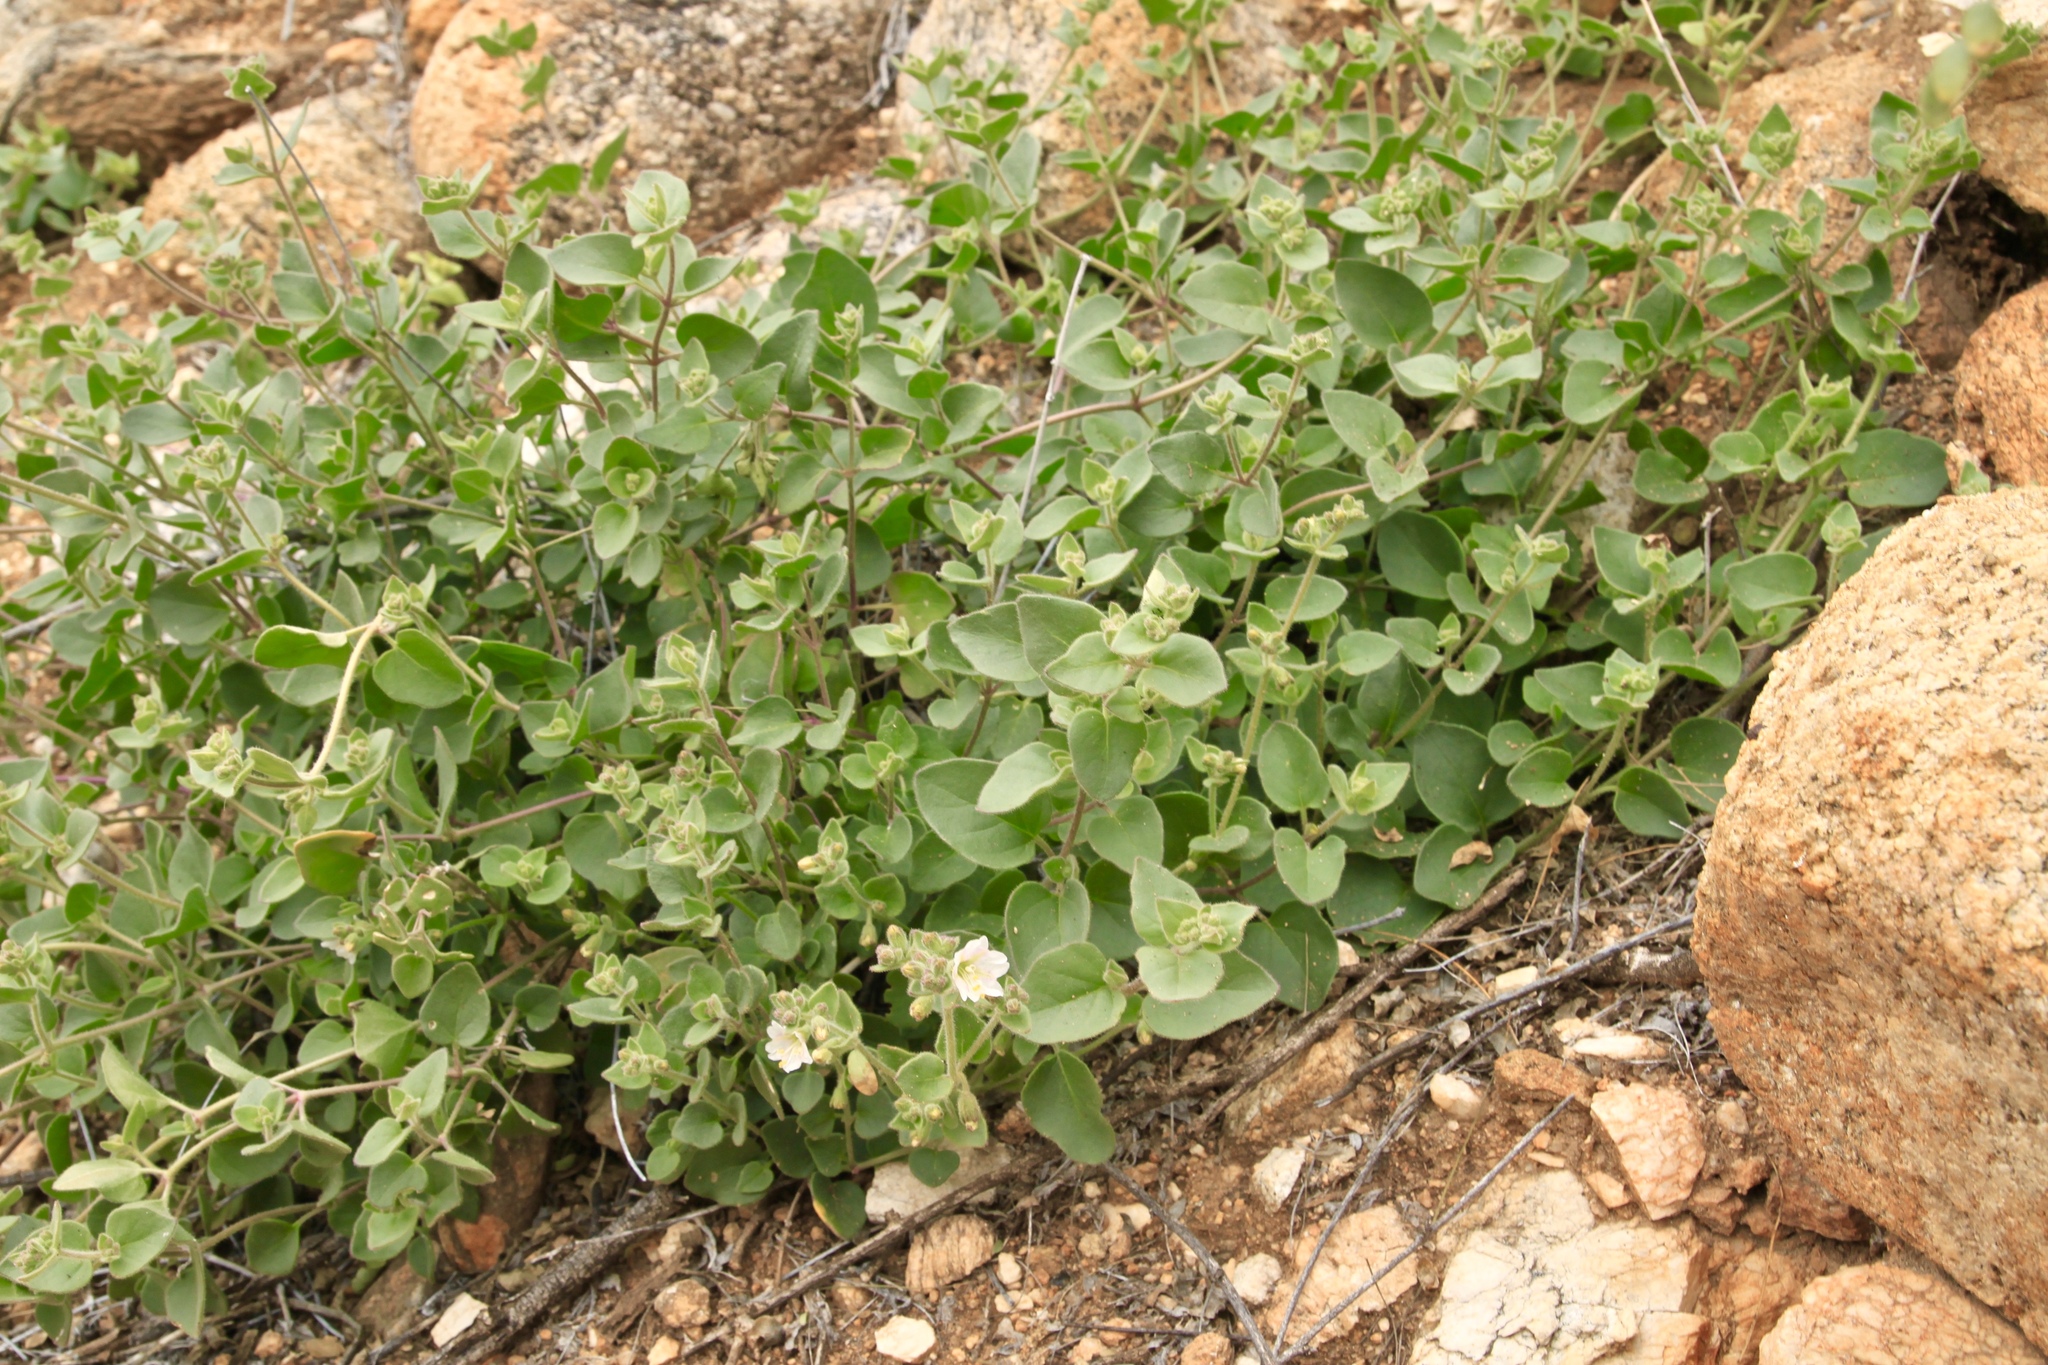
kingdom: Plantae
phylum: Tracheophyta
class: Magnoliopsida
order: Caryophyllales
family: Nyctaginaceae
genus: Mirabilis
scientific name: Mirabilis laevis
